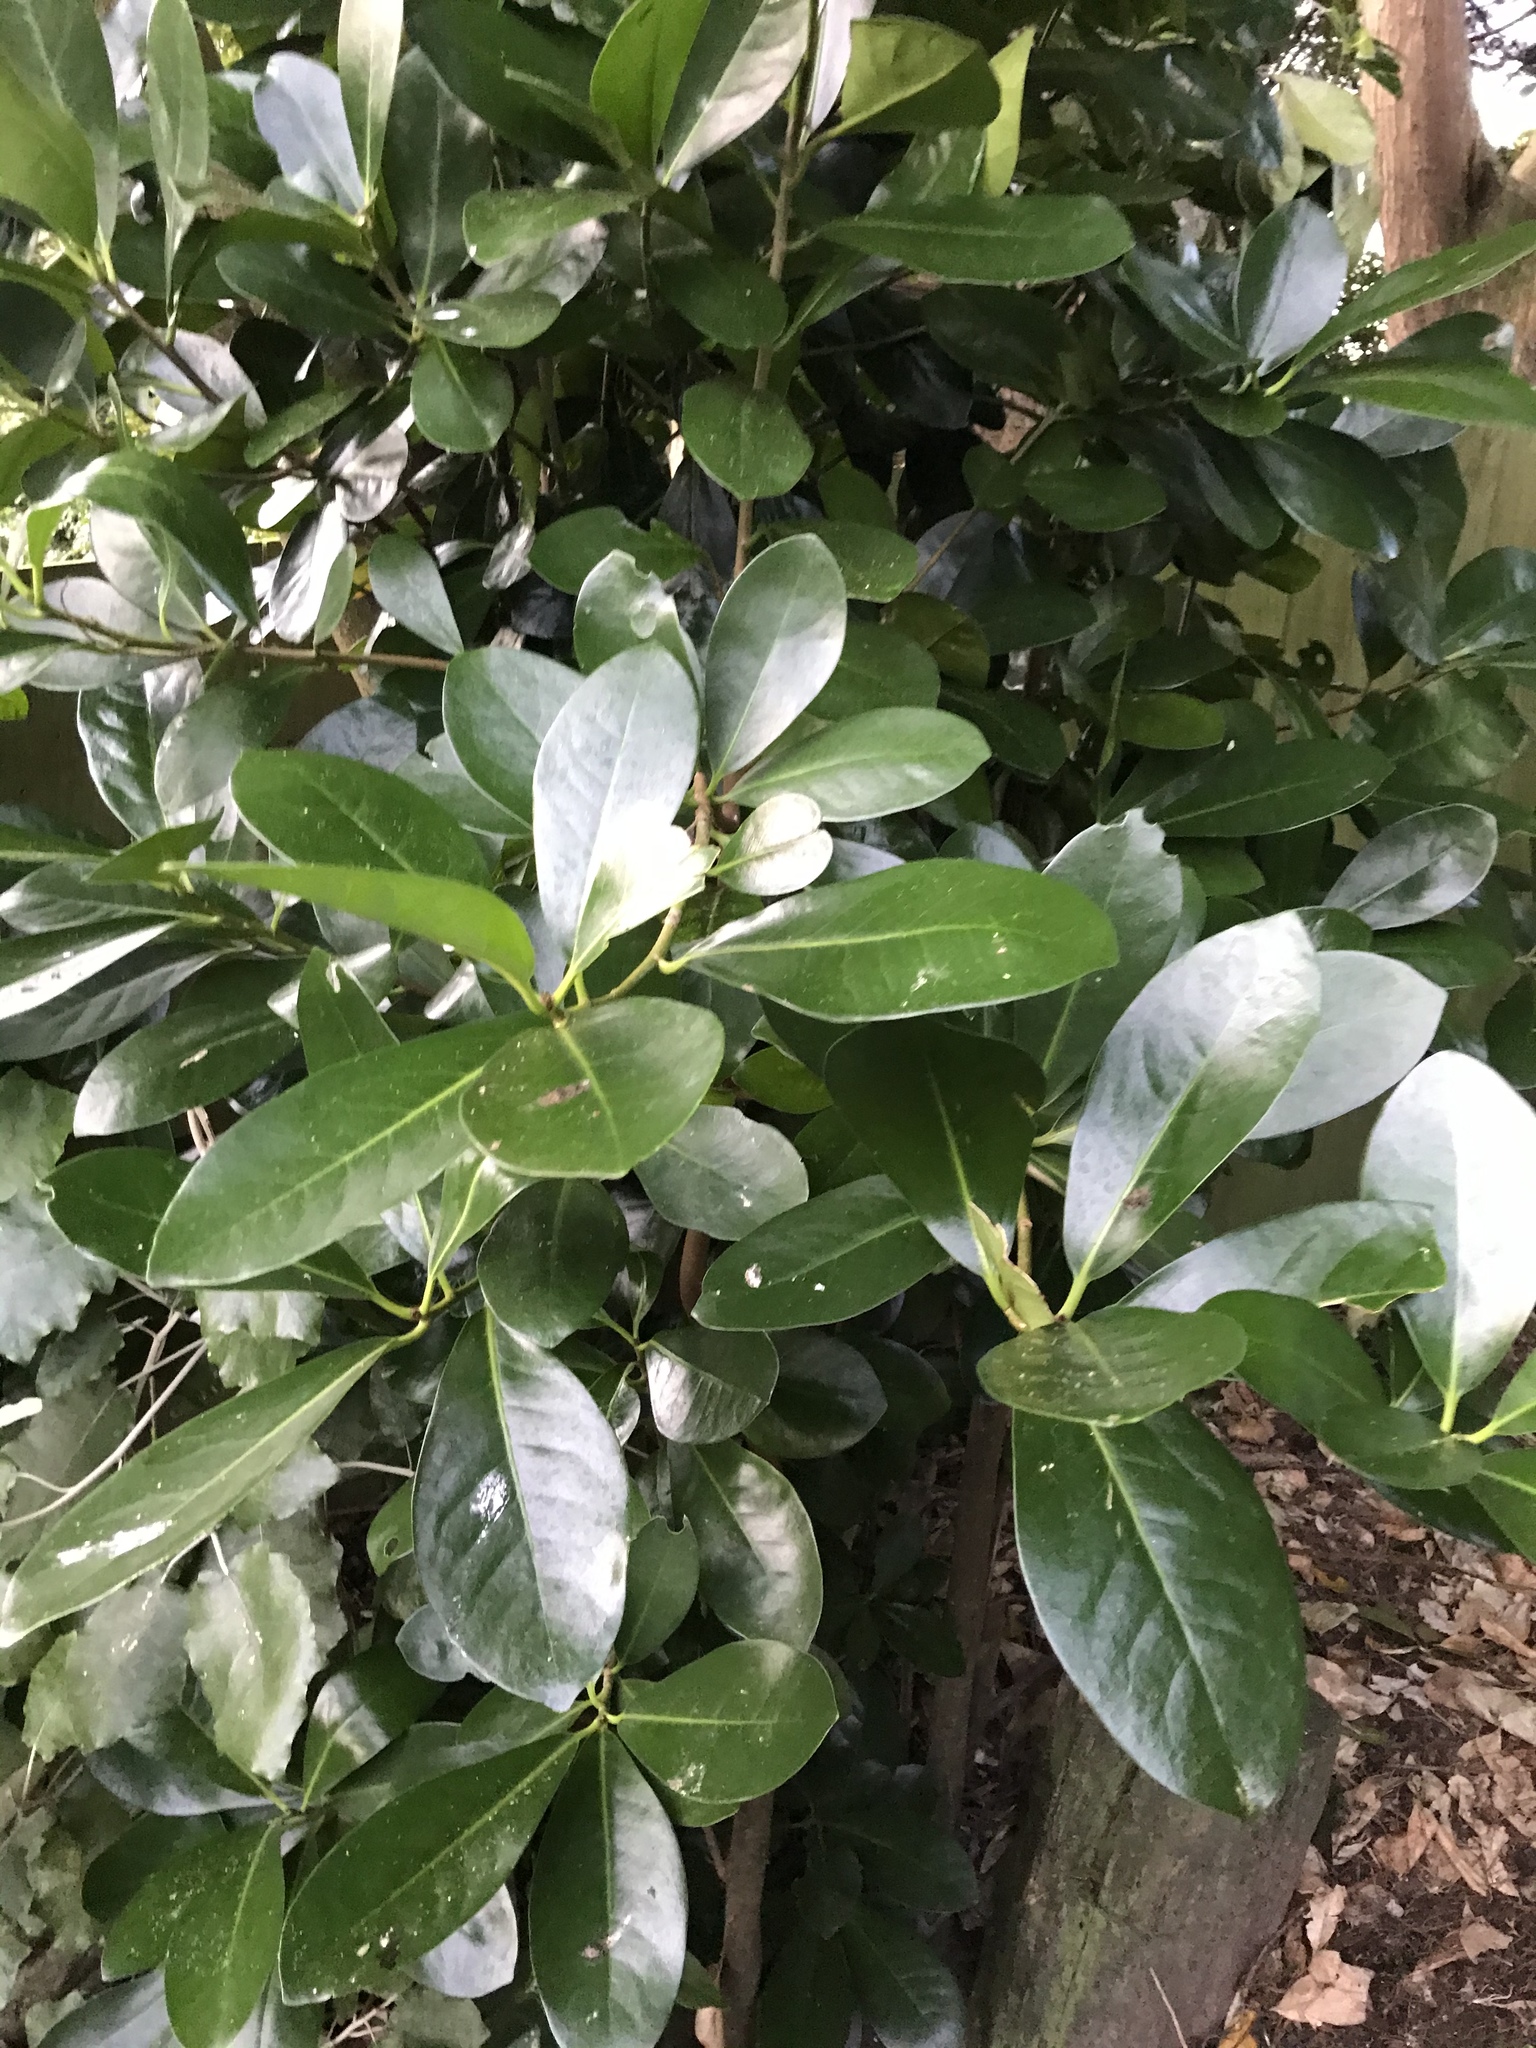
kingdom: Plantae
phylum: Tracheophyta
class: Magnoliopsida
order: Cucurbitales
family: Corynocarpaceae
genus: Corynocarpus
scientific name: Corynocarpus laevigatus
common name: New zealand laurel
